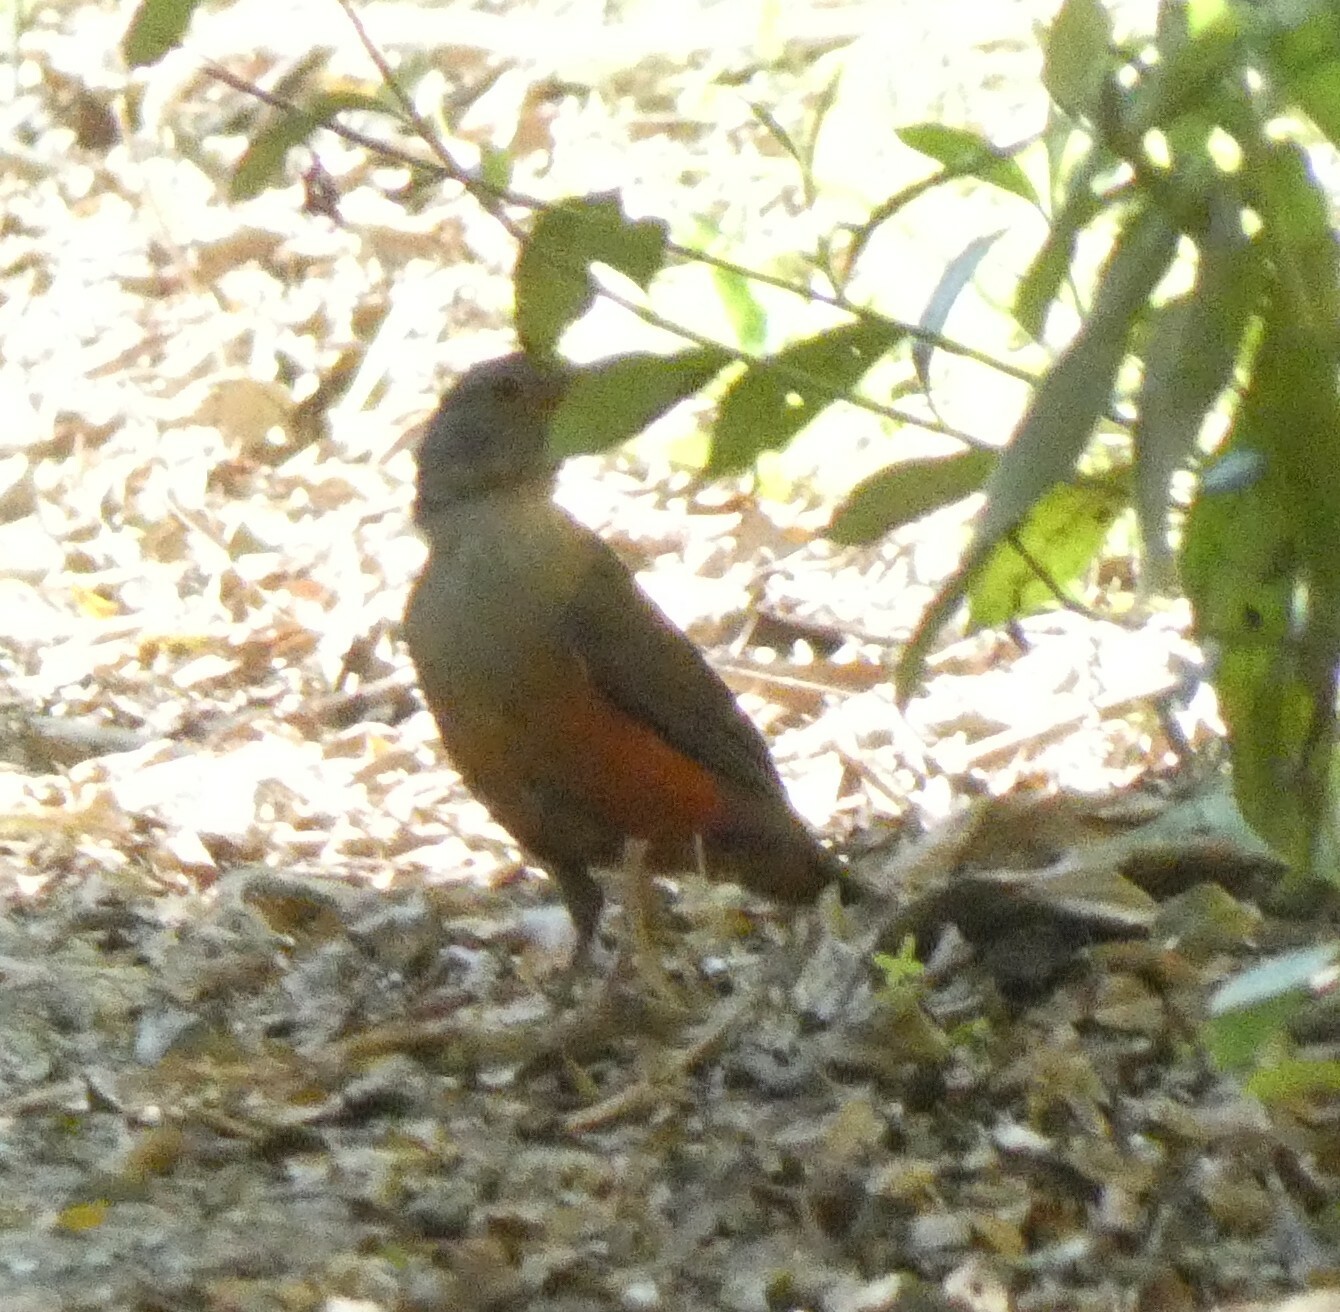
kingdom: Animalia
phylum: Chordata
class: Aves
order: Passeriformes
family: Turdidae
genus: Turdus
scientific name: Turdus rufiventris
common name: Rufous-bellied thrush
